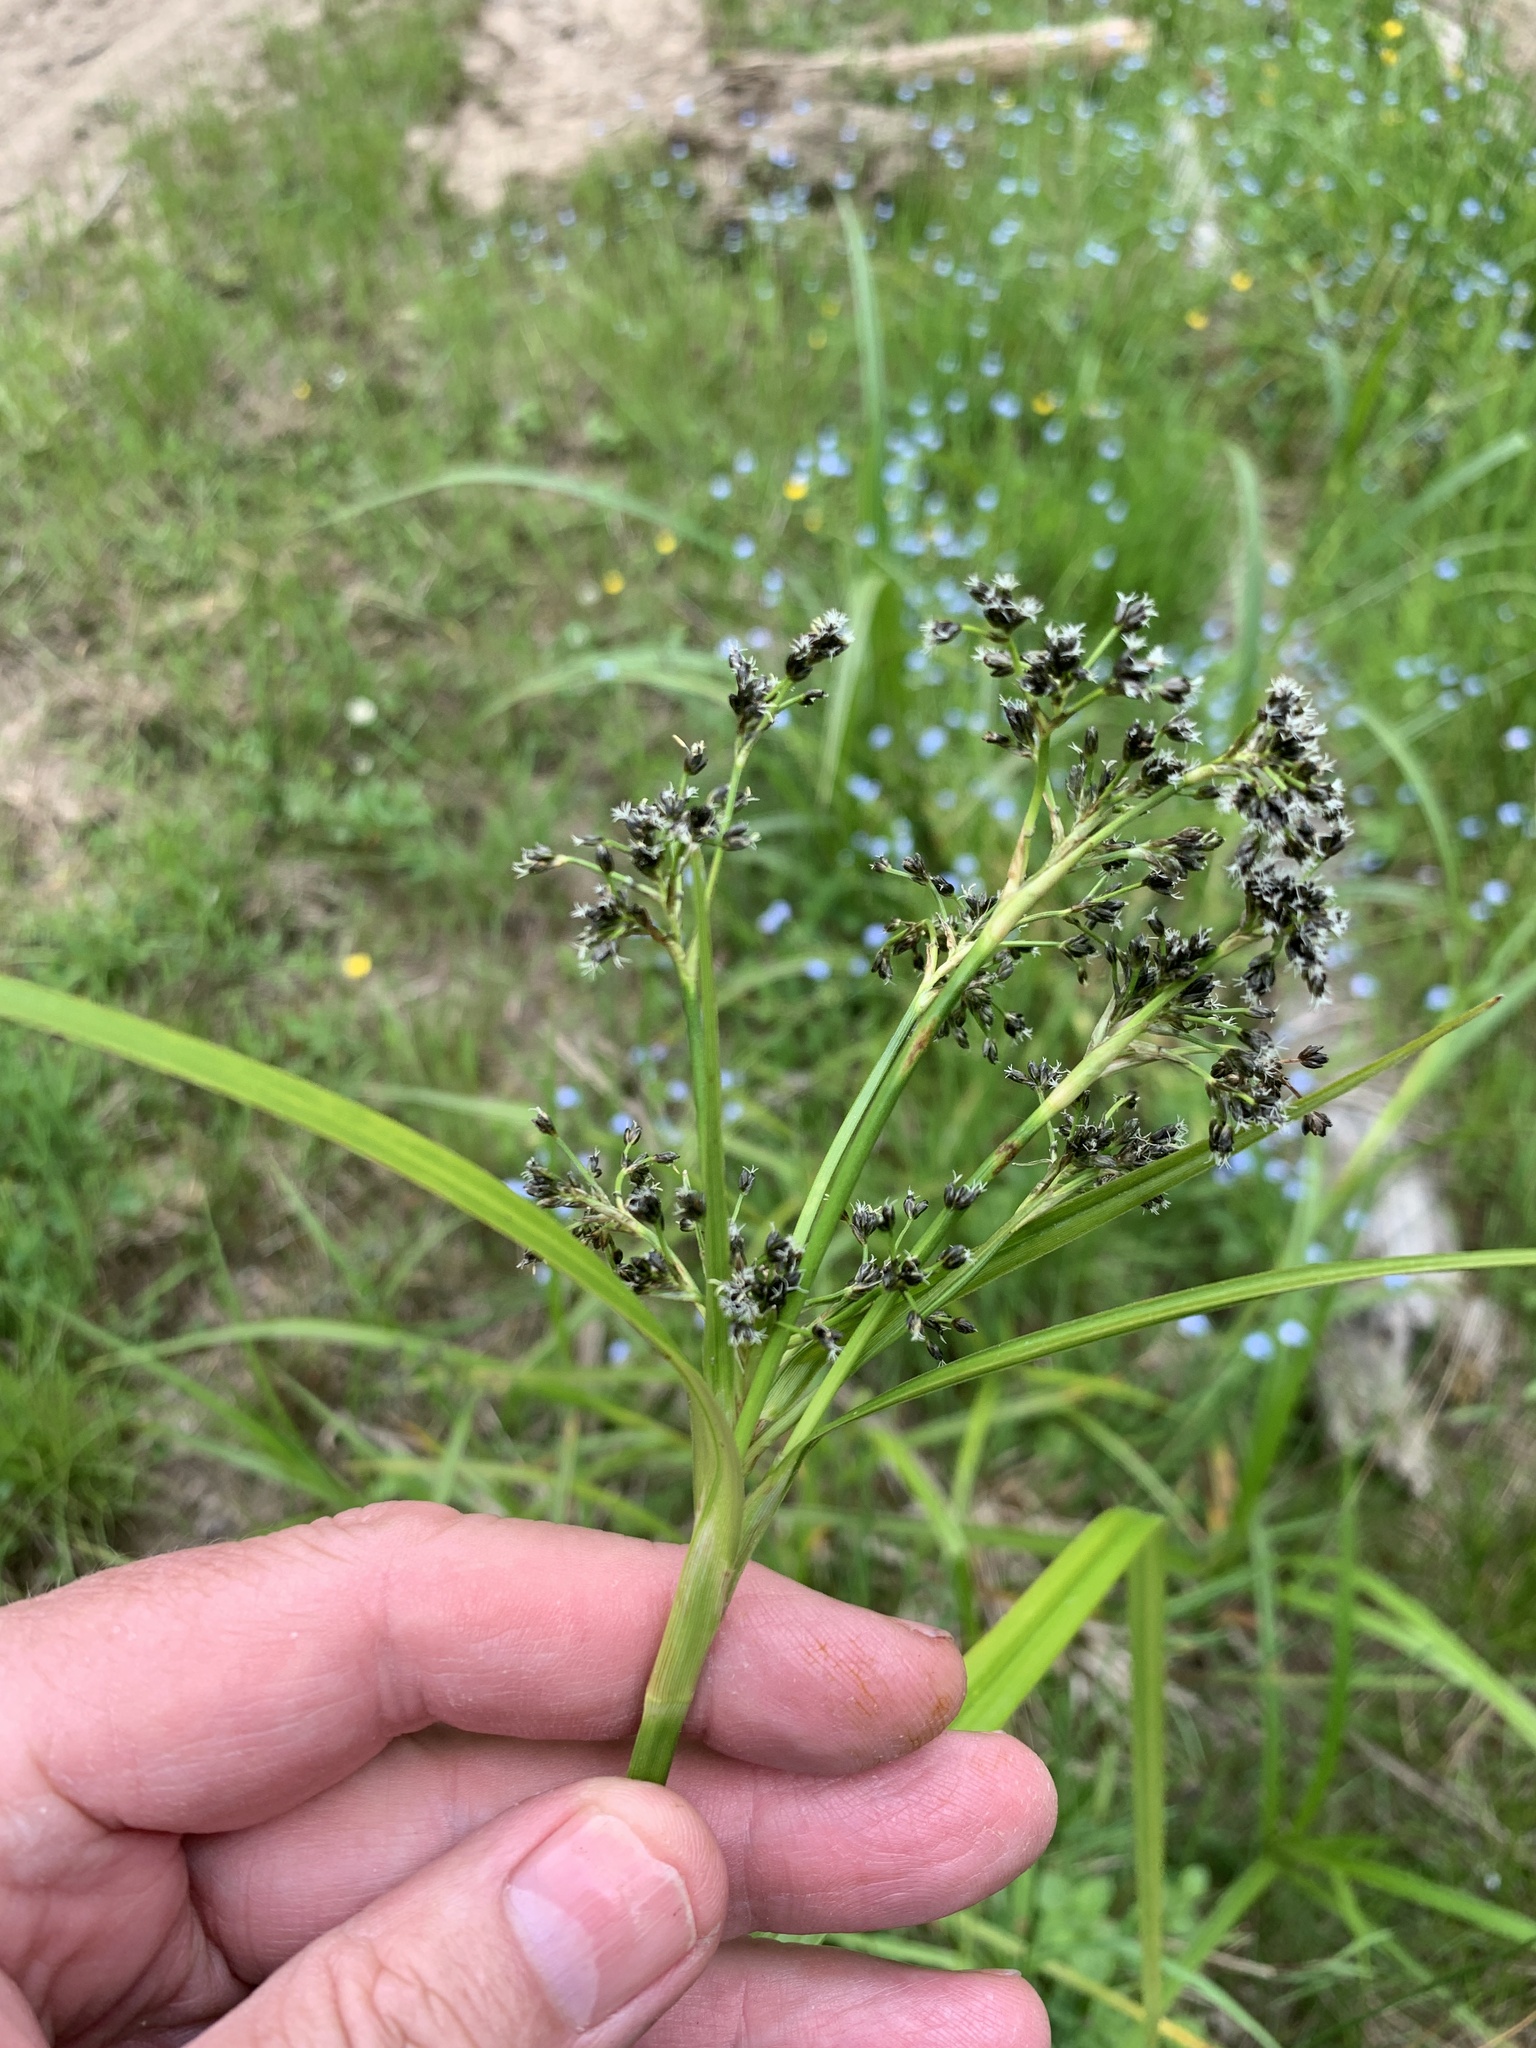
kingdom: Plantae
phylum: Tracheophyta
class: Liliopsida
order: Poales
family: Cyperaceae
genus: Scirpus
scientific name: Scirpus sylvaticus
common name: Wood club-rush
